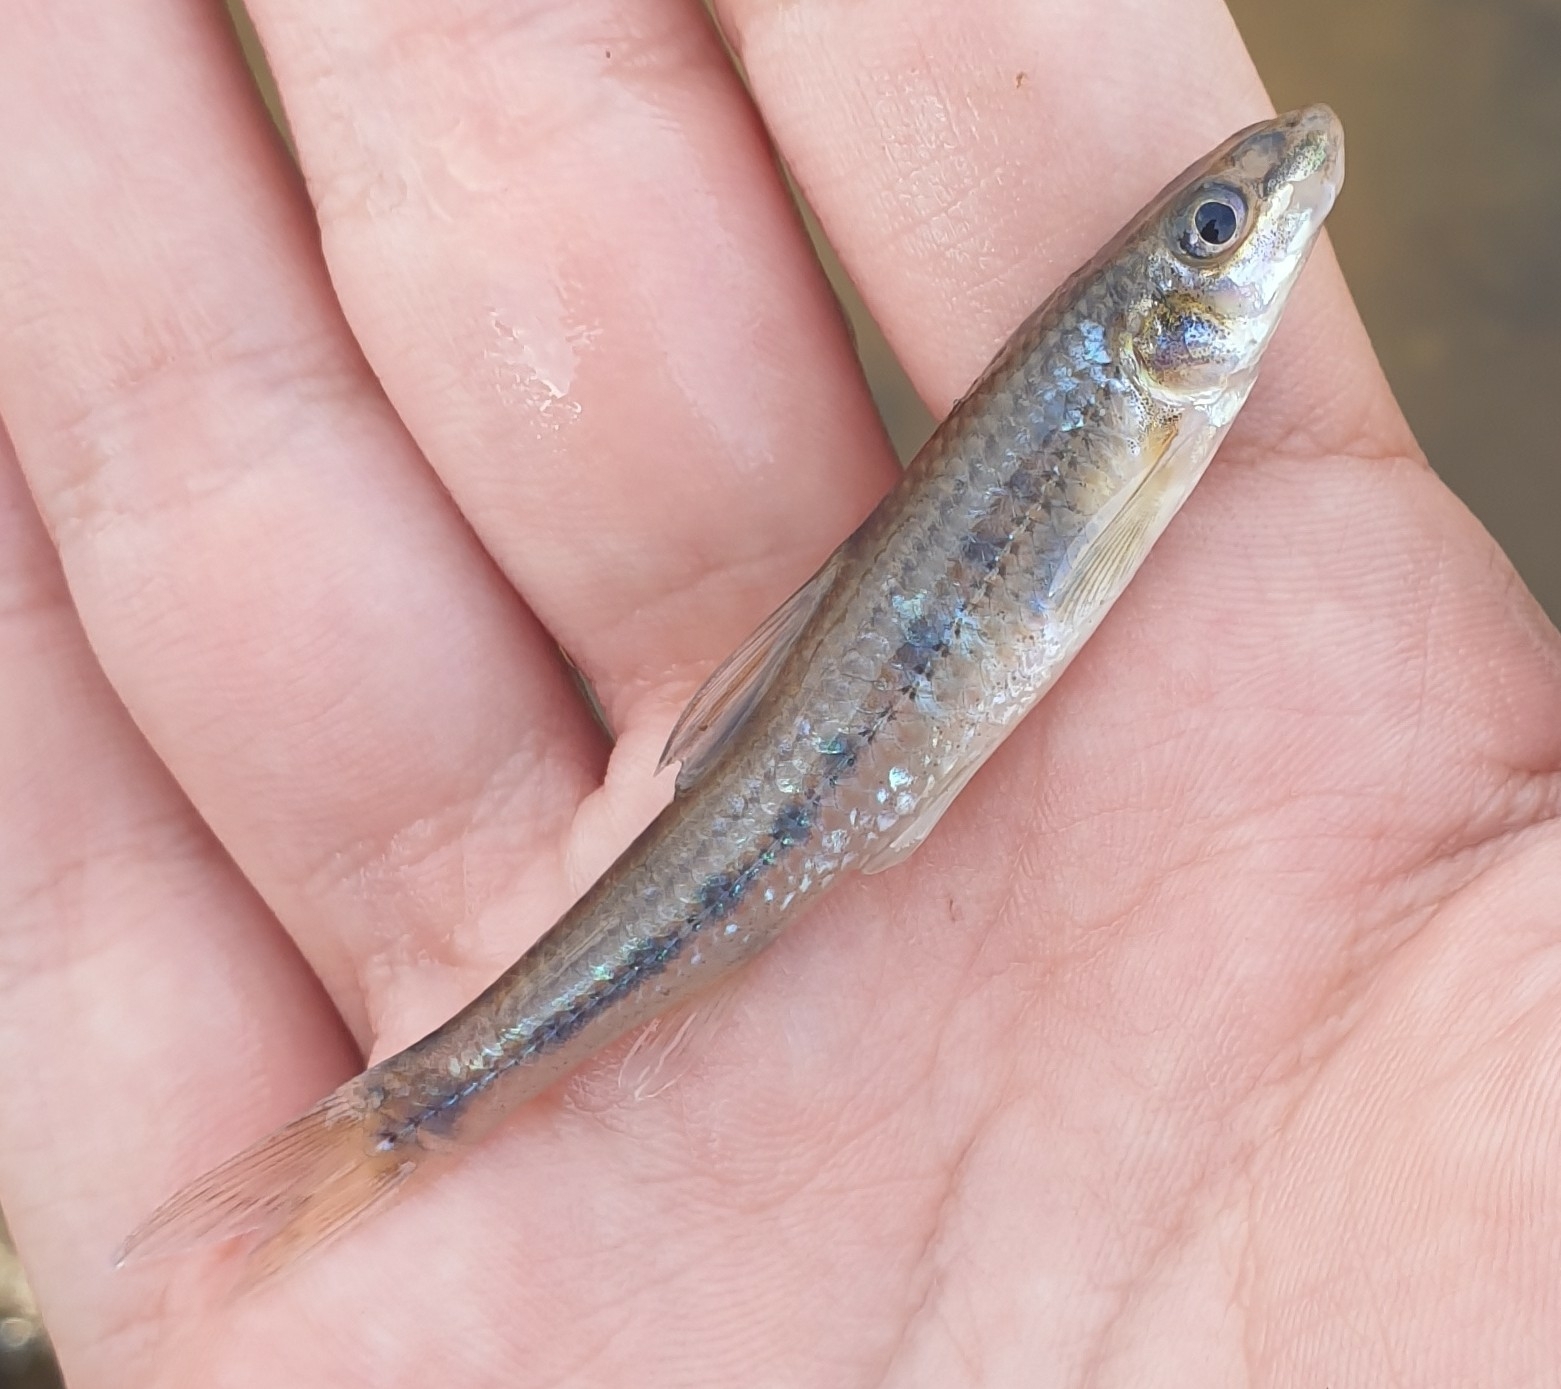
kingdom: Animalia
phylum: Chordata
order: Cypriniformes
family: Cyprinidae
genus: Gobio
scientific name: Gobio gobio
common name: Gudgeon
